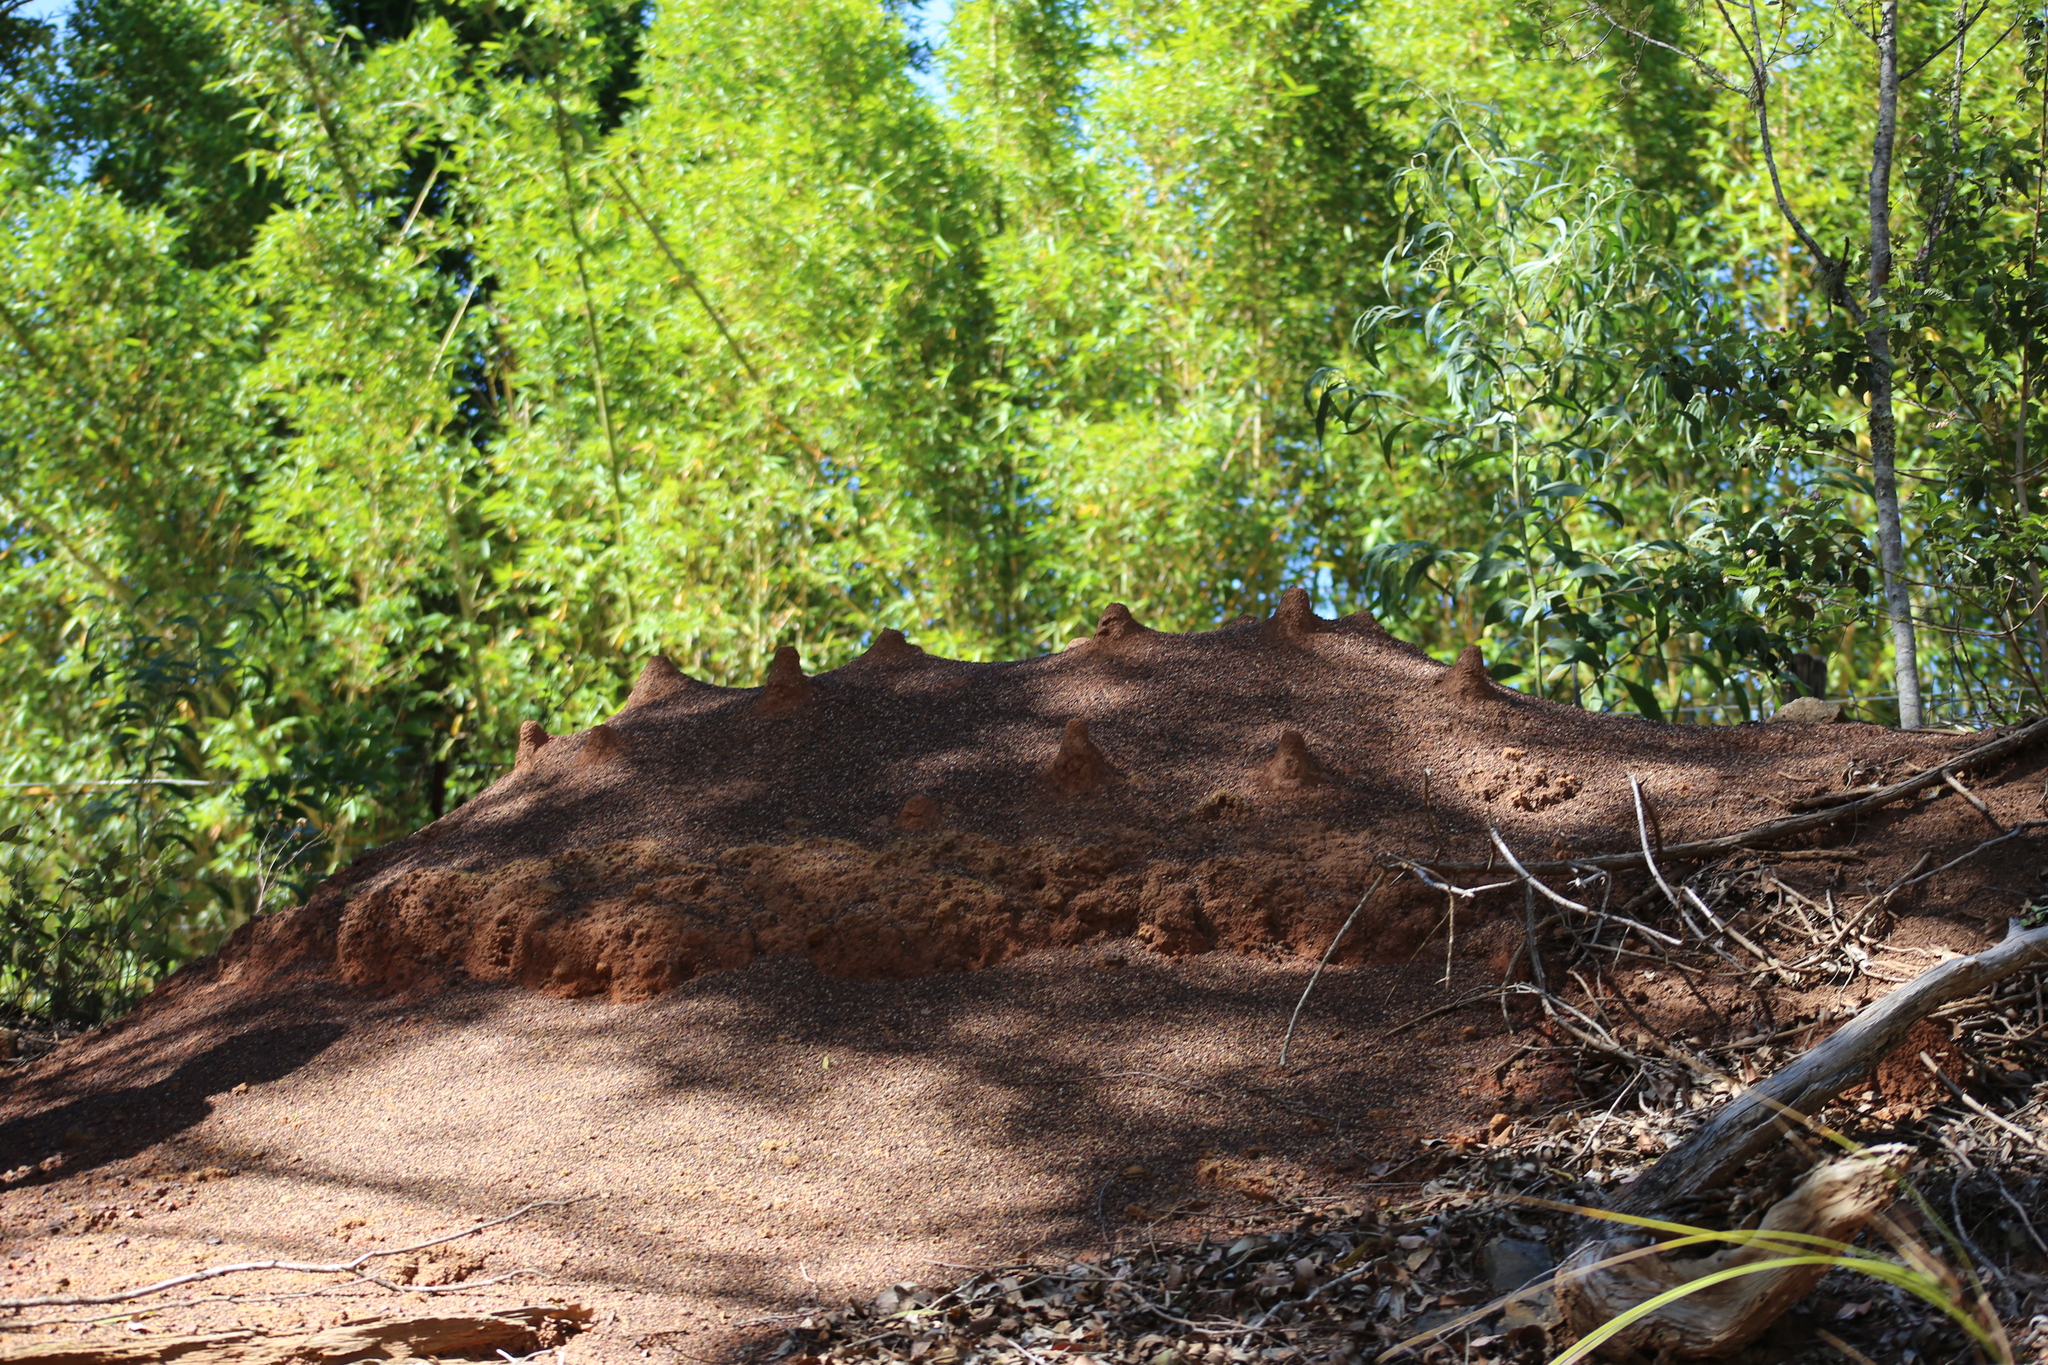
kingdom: Animalia
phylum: Arthropoda
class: Insecta
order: Hymenoptera
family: Formicidae
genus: Iridomyrmex
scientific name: Iridomyrmex purpureus
